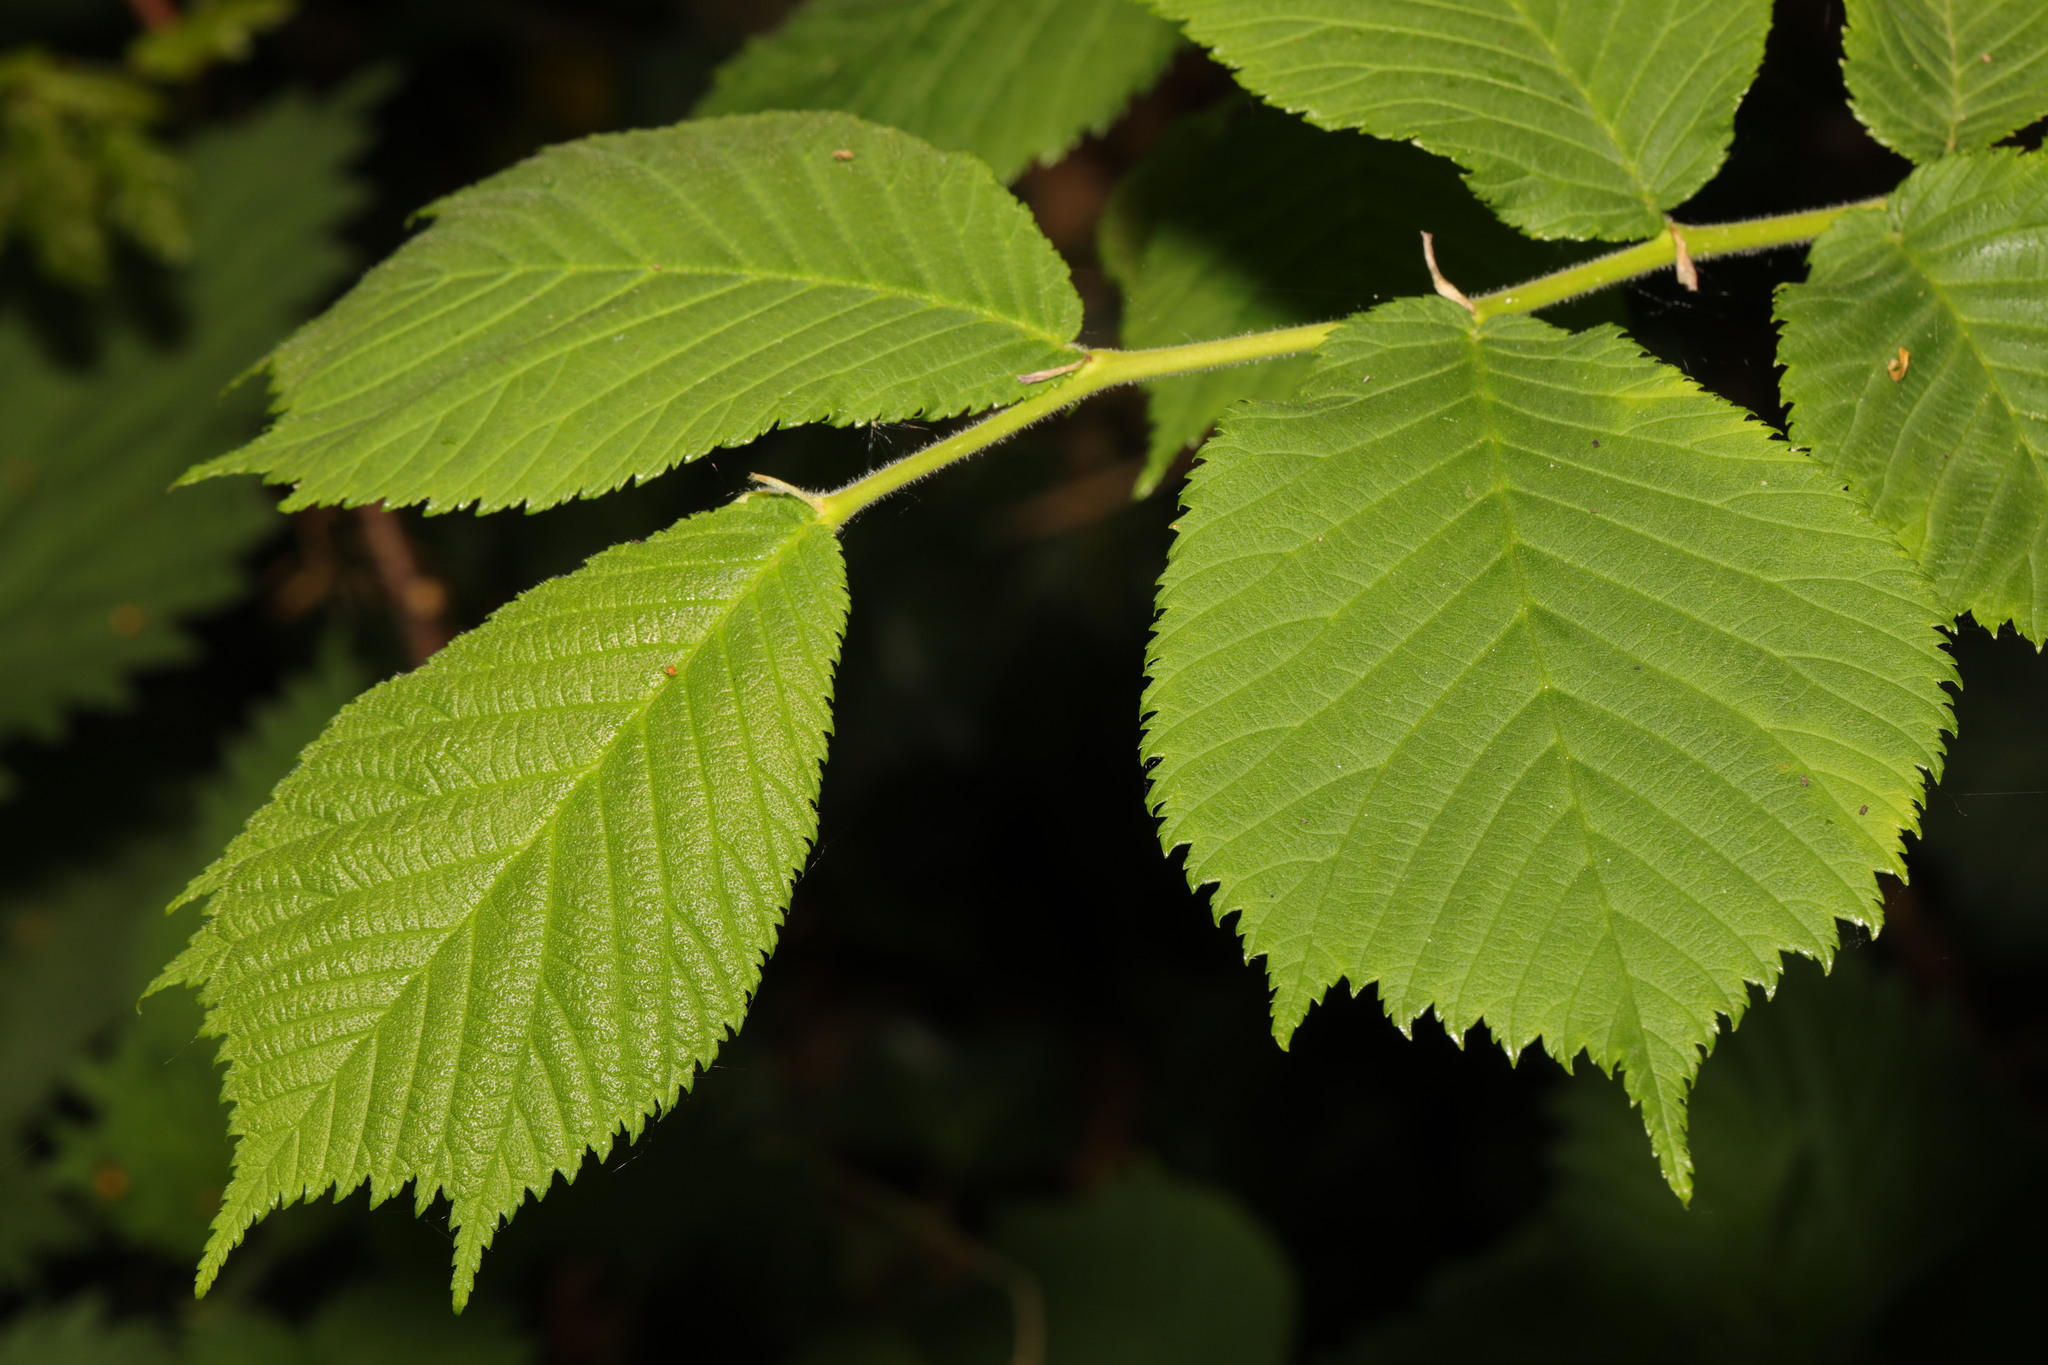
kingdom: Plantae
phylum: Tracheophyta
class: Magnoliopsida
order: Rosales
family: Ulmaceae
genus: Ulmus
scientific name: Ulmus glabra
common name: Wych elm
